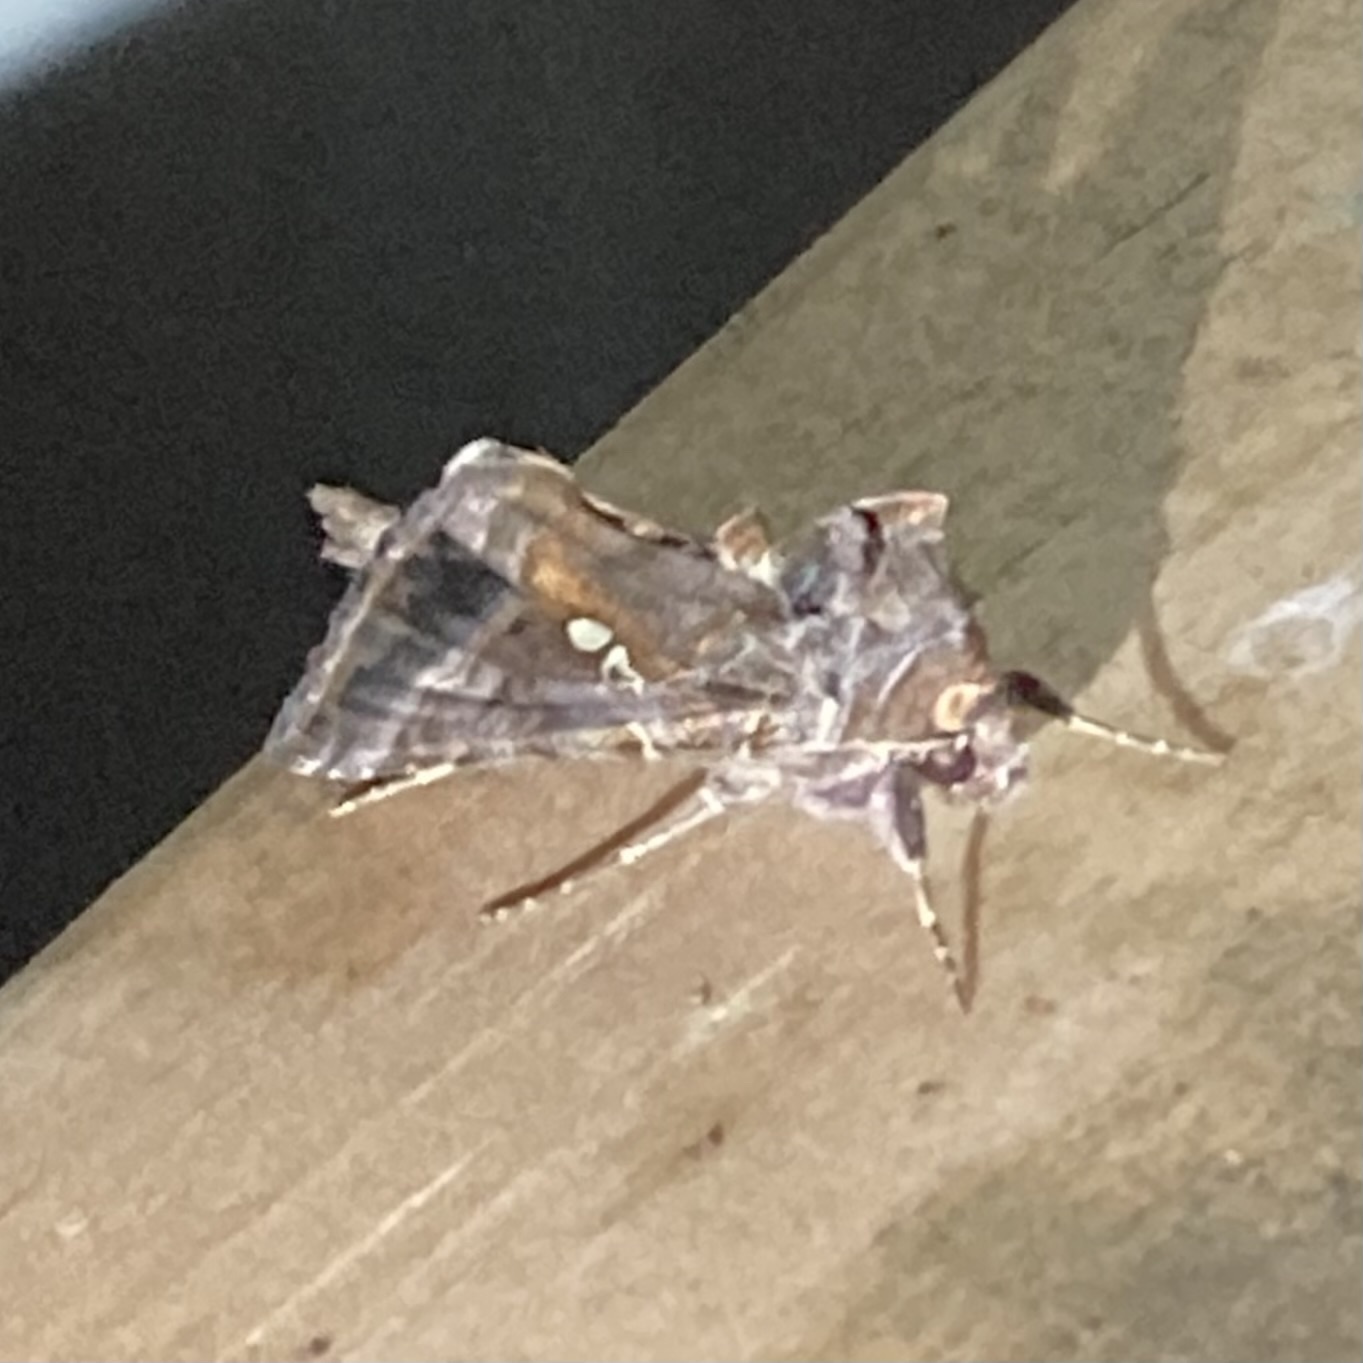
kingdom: Animalia
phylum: Arthropoda
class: Insecta
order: Lepidoptera
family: Noctuidae
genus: Autographa
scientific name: Autographa precationis
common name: Common looper moth
